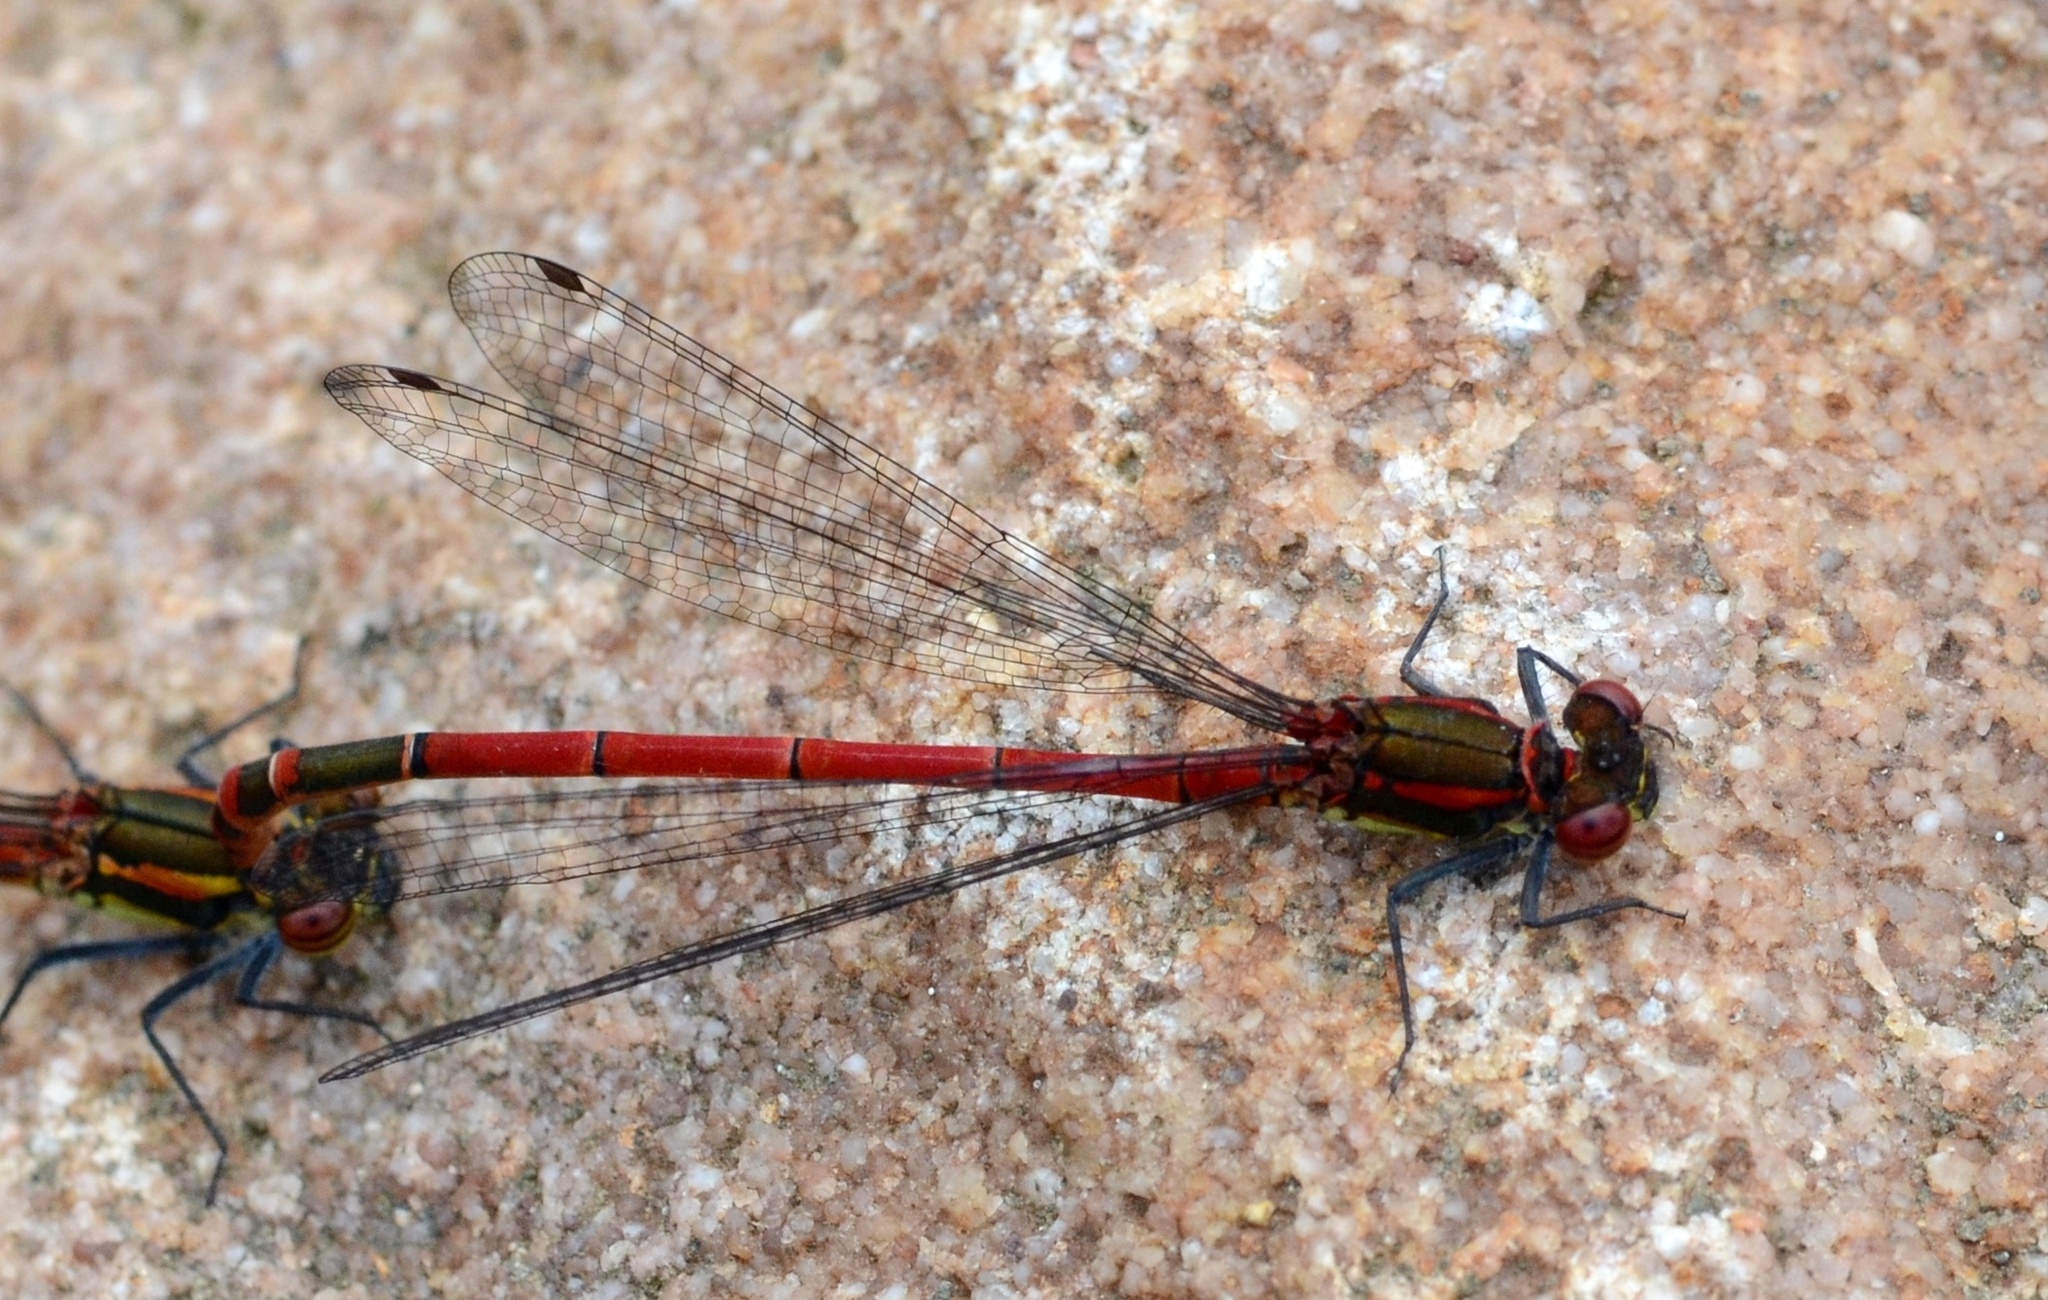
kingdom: Animalia
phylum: Arthropoda
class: Insecta
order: Odonata
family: Coenagrionidae
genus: Pyrrhosoma
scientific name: Pyrrhosoma nymphula
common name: Large red damsel
